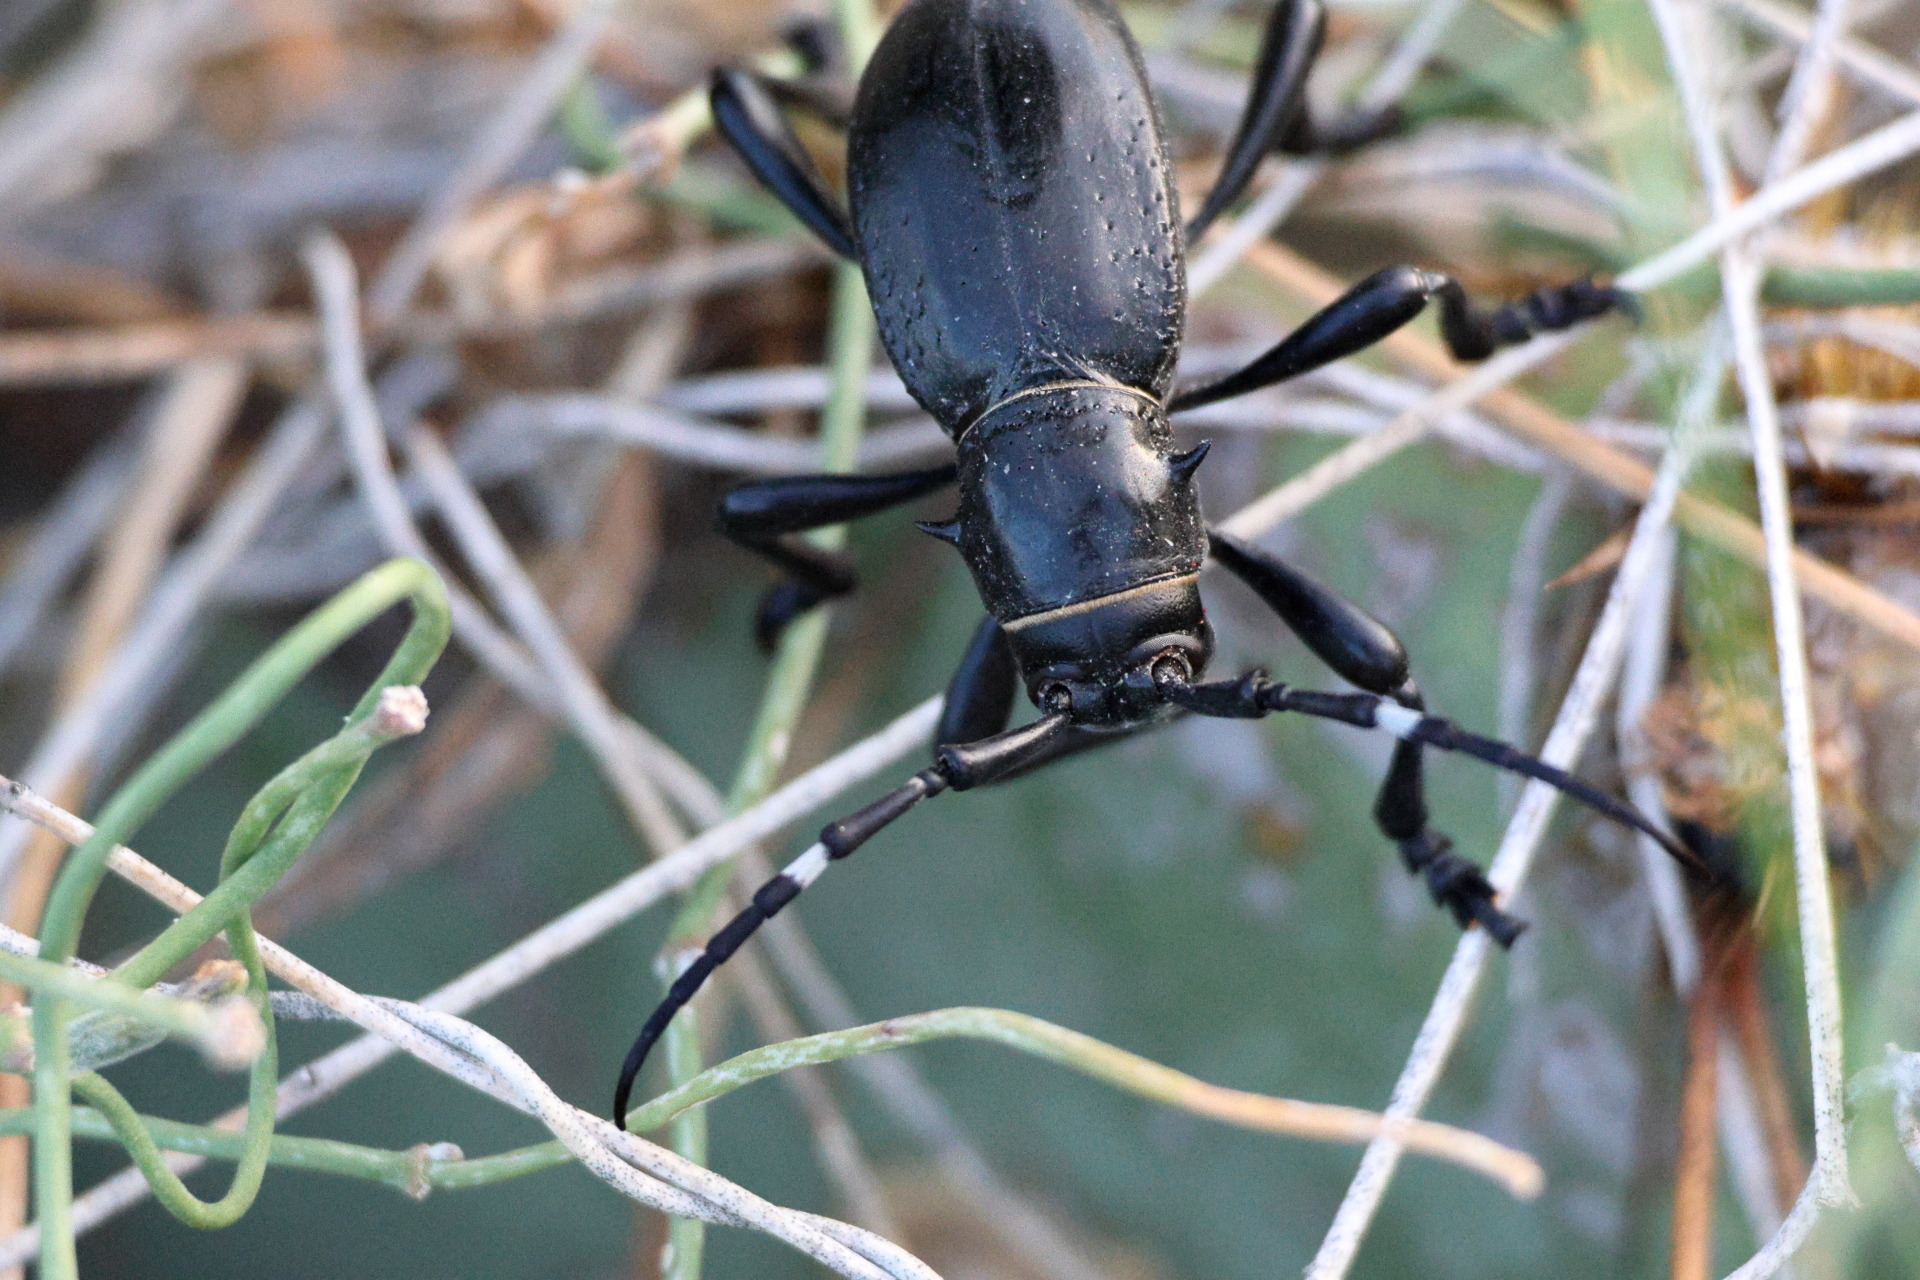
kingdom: Animalia
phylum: Arthropoda
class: Insecta
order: Coleoptera
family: Cerambycidae
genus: Moneilema
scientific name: Moneilema gigas
